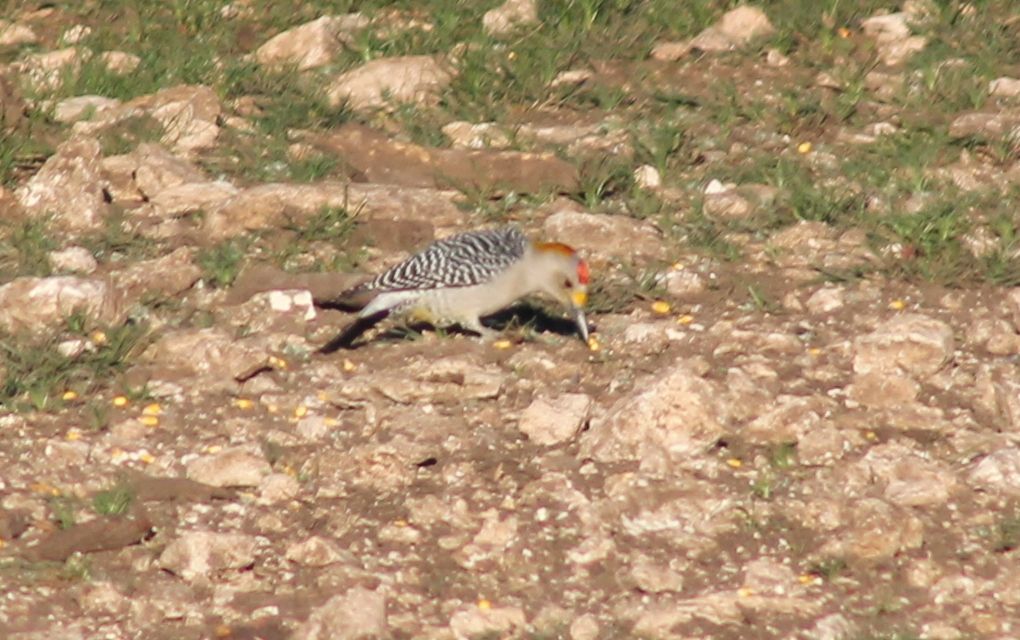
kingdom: Animalia
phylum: Chordata
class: Aves
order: Piciformes
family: Picidae
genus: Melanerpes
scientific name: Melanerpes aurifrons
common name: Golden-fronted woodpecker
